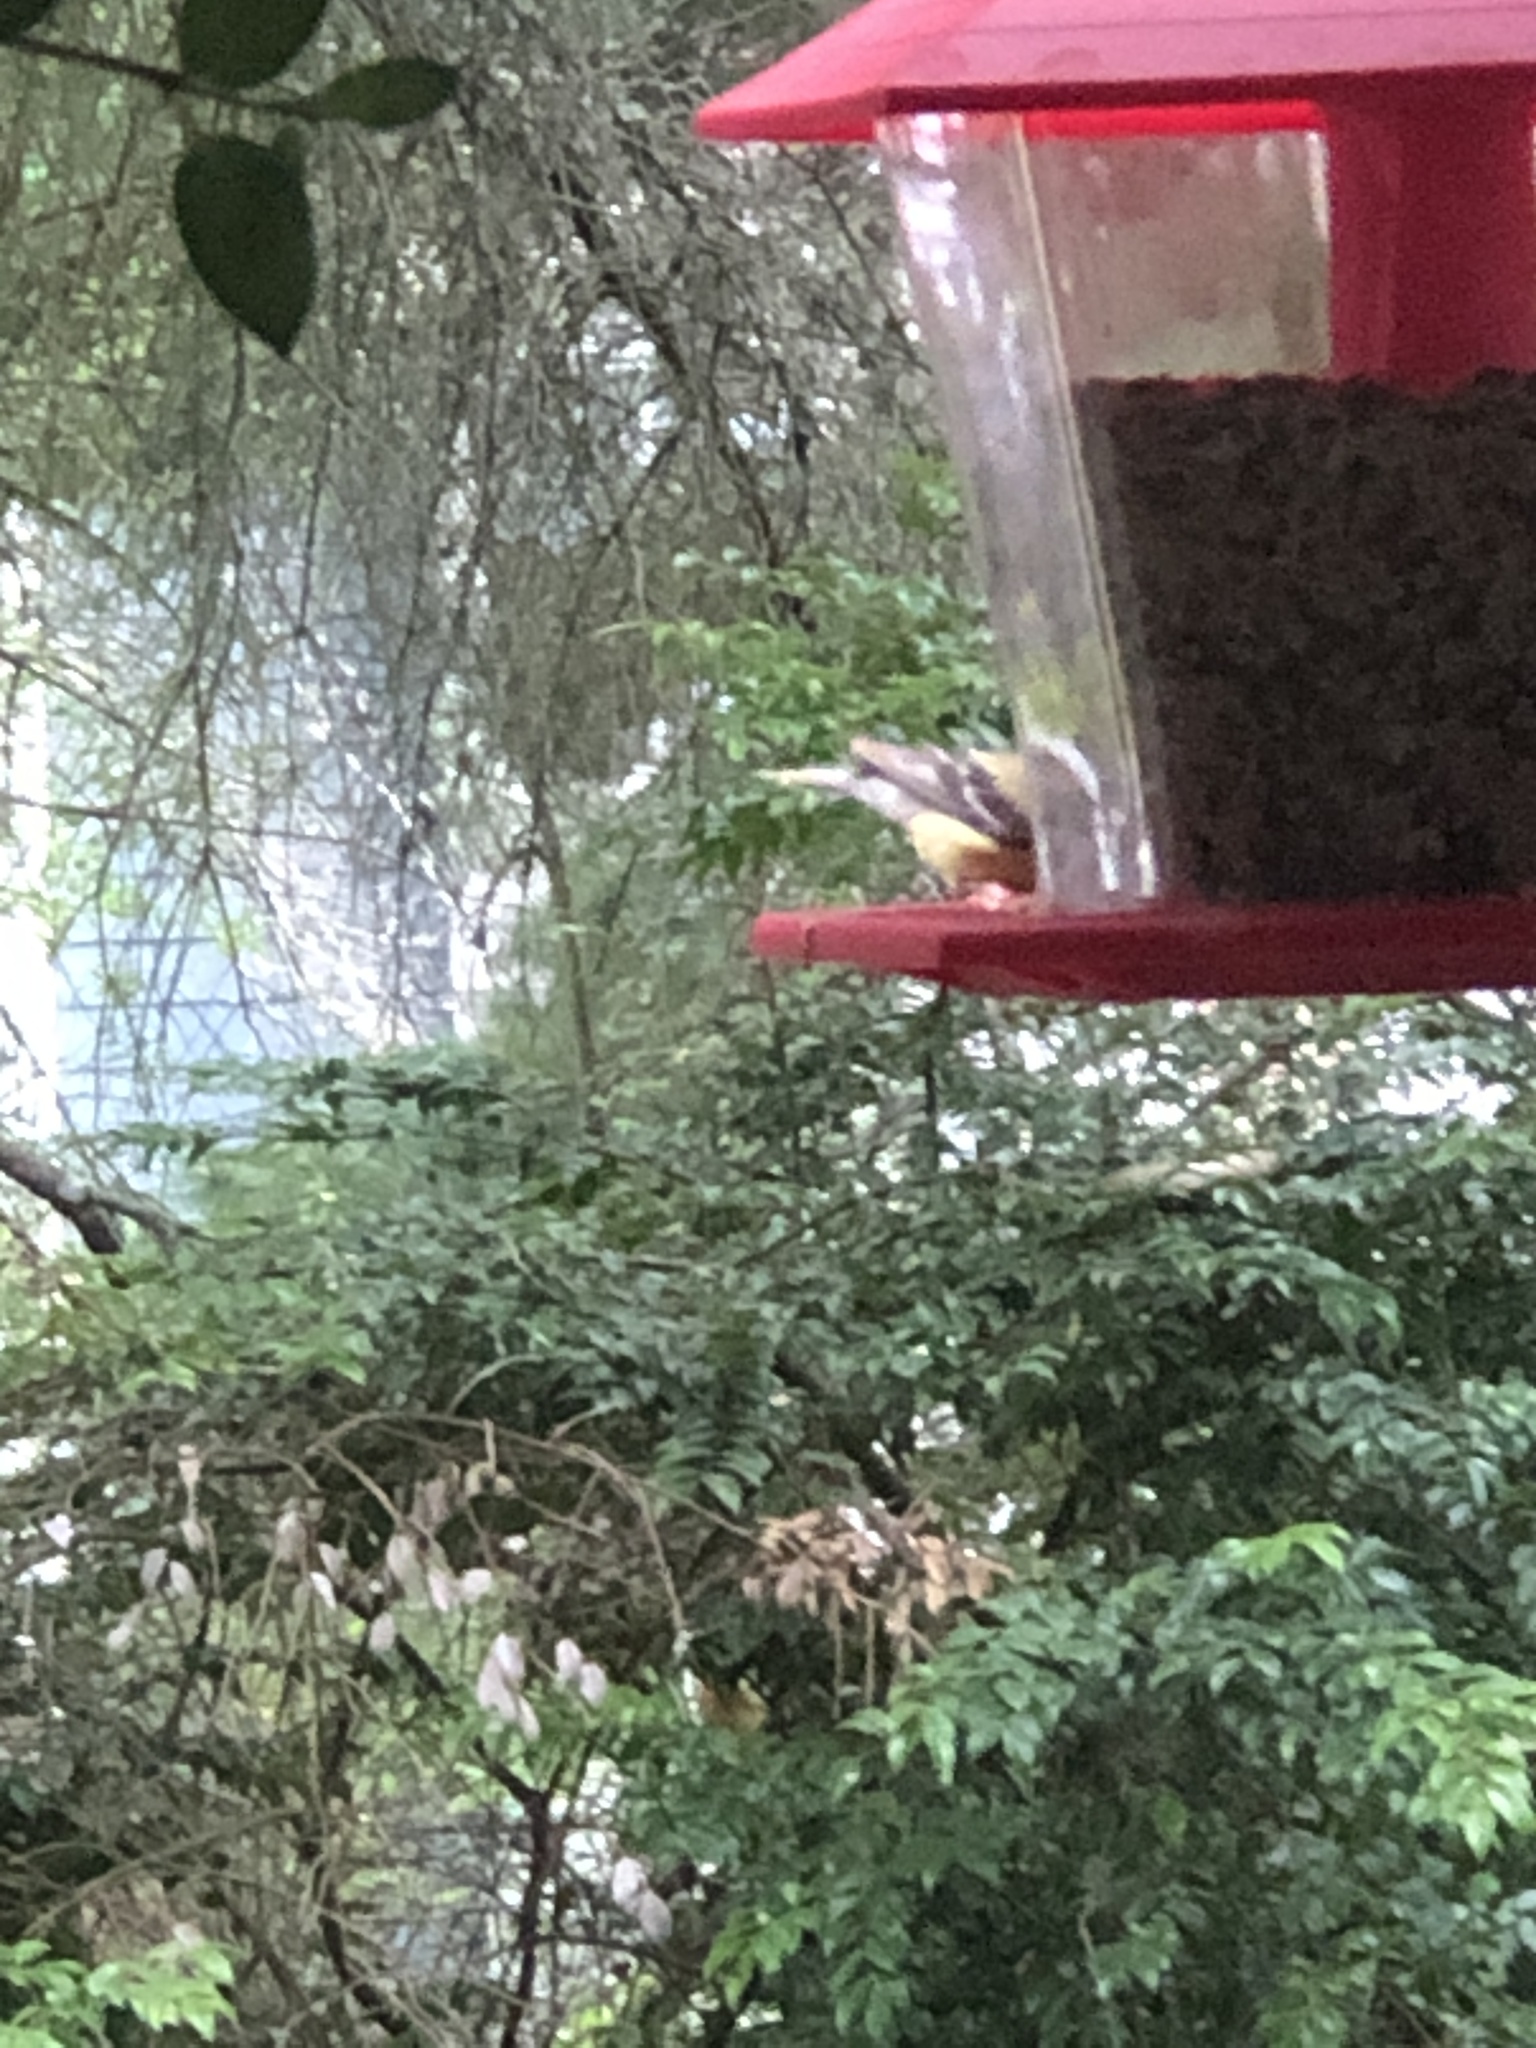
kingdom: Animalia
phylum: Chordata
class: Aves
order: Passeriformes
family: Fringillidae
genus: Spinus
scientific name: Spinus tristis
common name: American goldfinch
